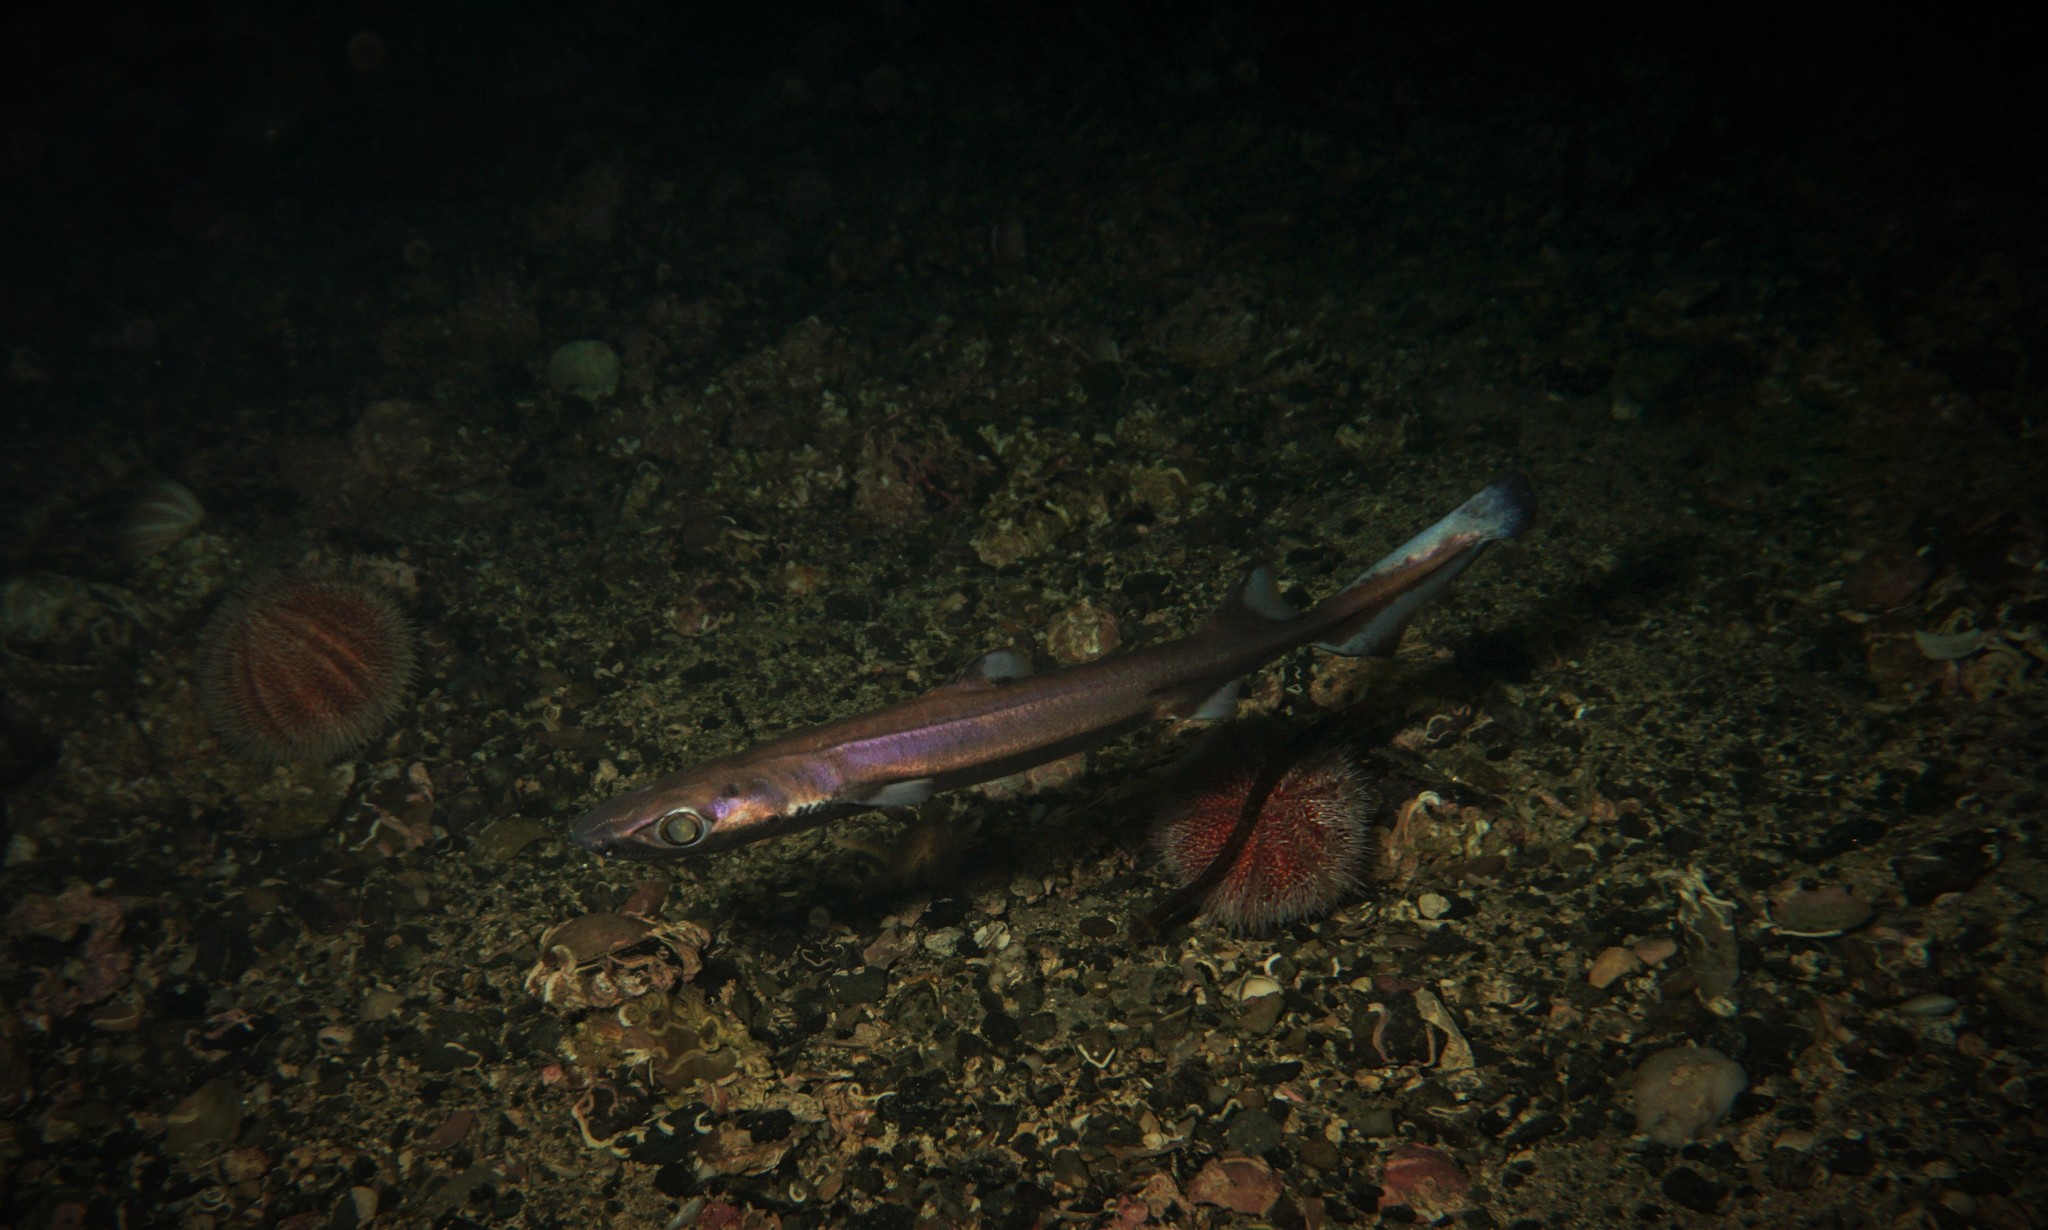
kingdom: Animalia
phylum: Chordata
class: Elasmobranchii
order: Squaliformes
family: Etmopteridae
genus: Etmopterus
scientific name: Etmopterus spinax
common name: Velvet belly
